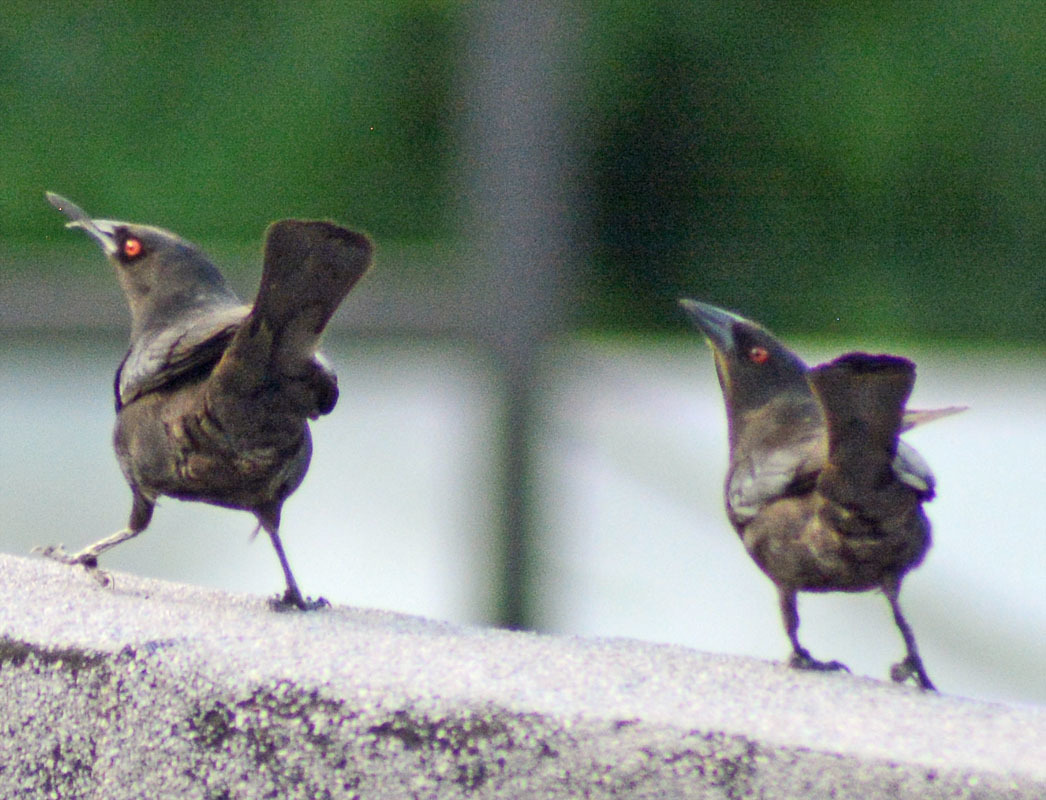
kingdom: Animalia
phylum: Chordata
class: Aves
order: Passeriformes
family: Icteridae
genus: Molothrus
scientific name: Molothrus aeneus
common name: Bronzed cowbird
